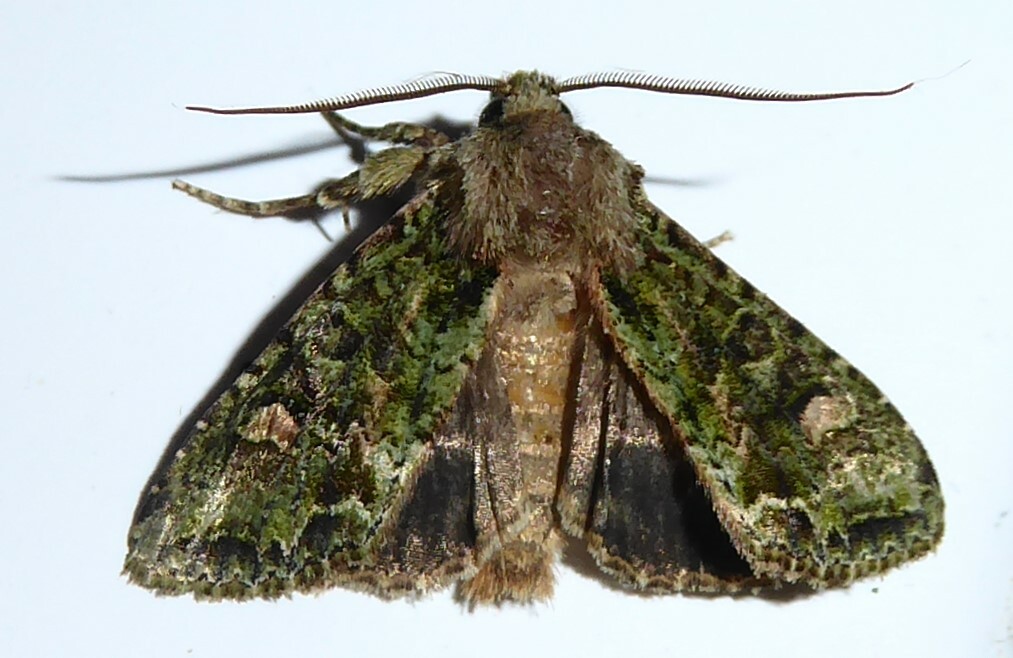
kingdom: Animalia
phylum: Arthropoda
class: Insecta
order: Lepidoptera
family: Noctuidae
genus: Ichneutica
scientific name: Ichneutica
